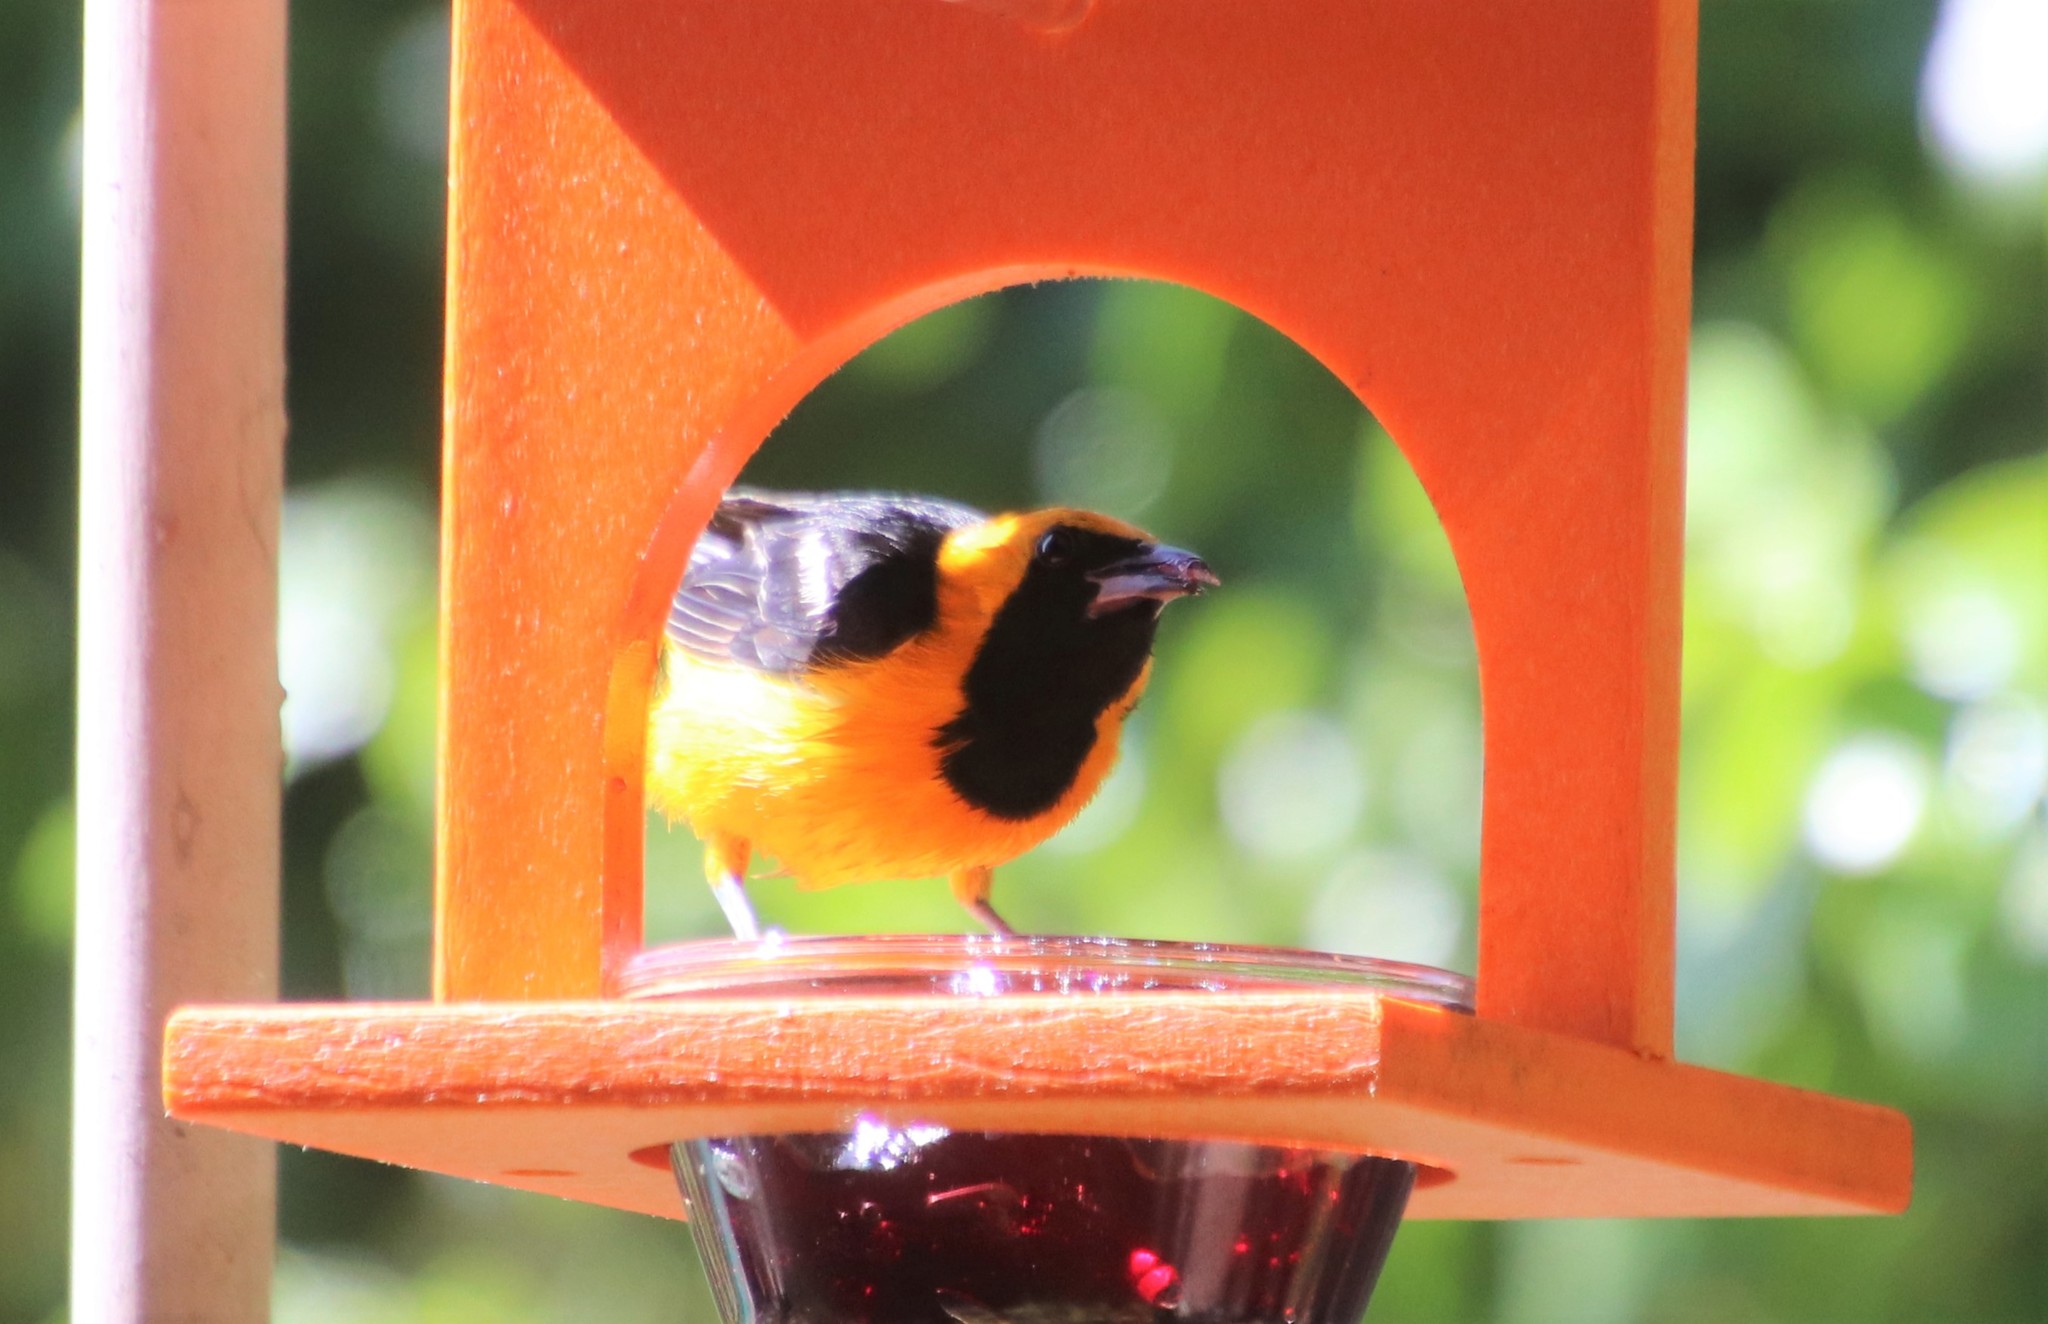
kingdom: Animalia
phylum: Chordata
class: Aves
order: Passeriformes
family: Icteridae
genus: Icterus
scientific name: Icterus cucullatus
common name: Hooded oriole
